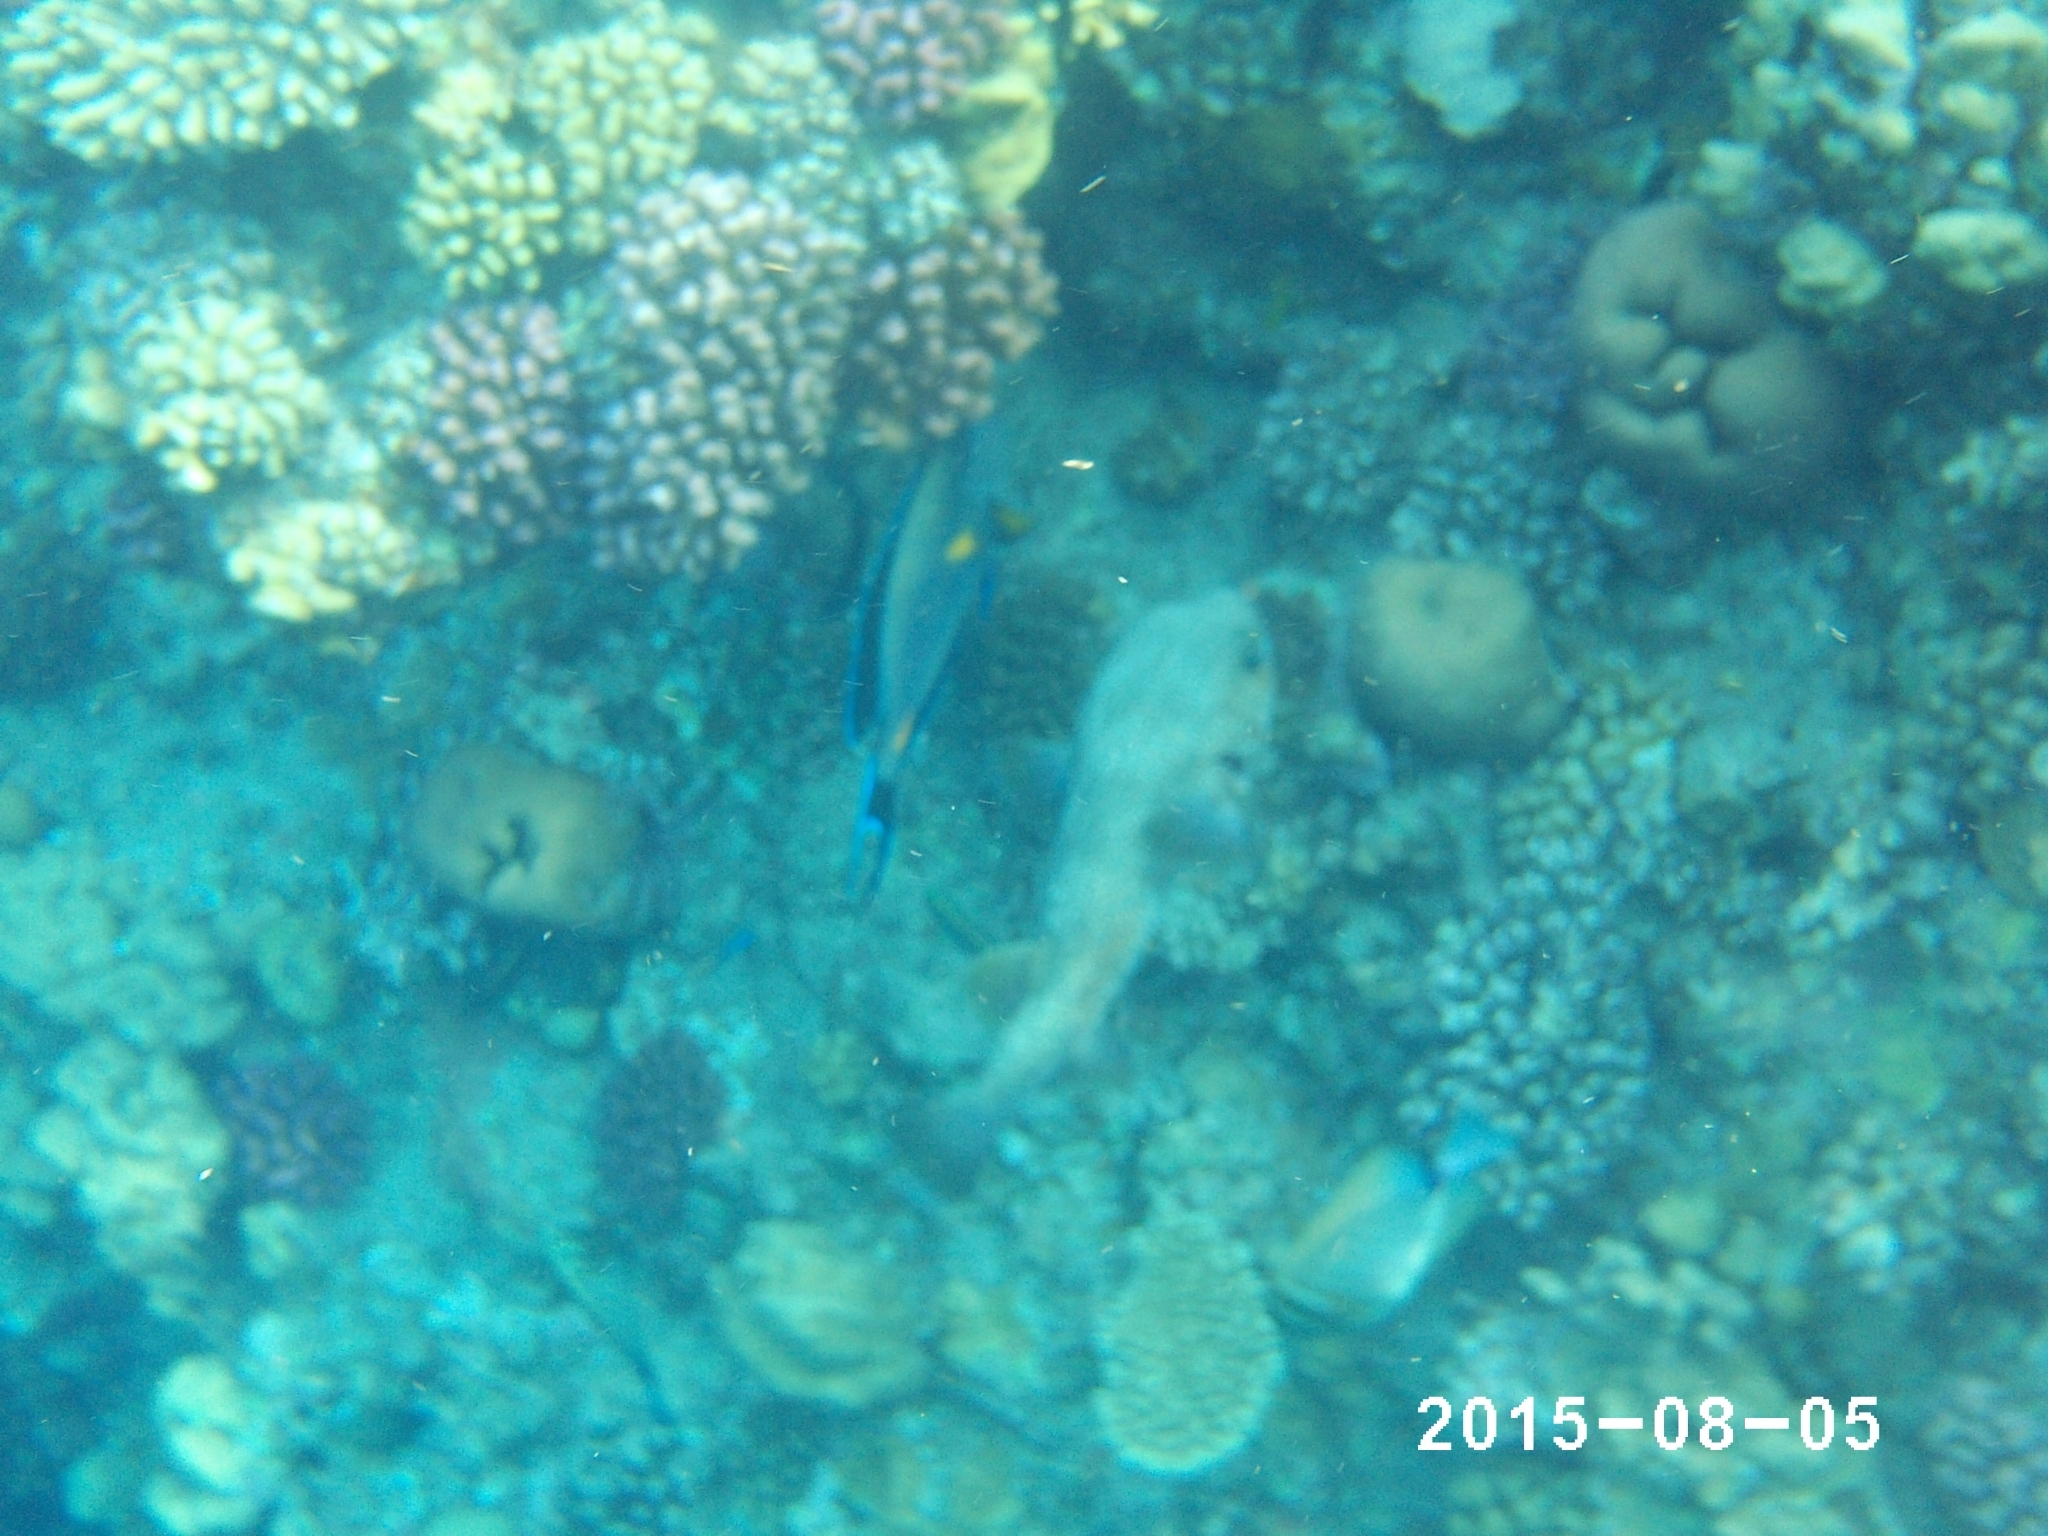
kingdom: Animalia
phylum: Chordata
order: Tetraodontiformes
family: Diodontidae
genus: Diodon
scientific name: Diodon hystrix
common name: Giant porcupinefish
